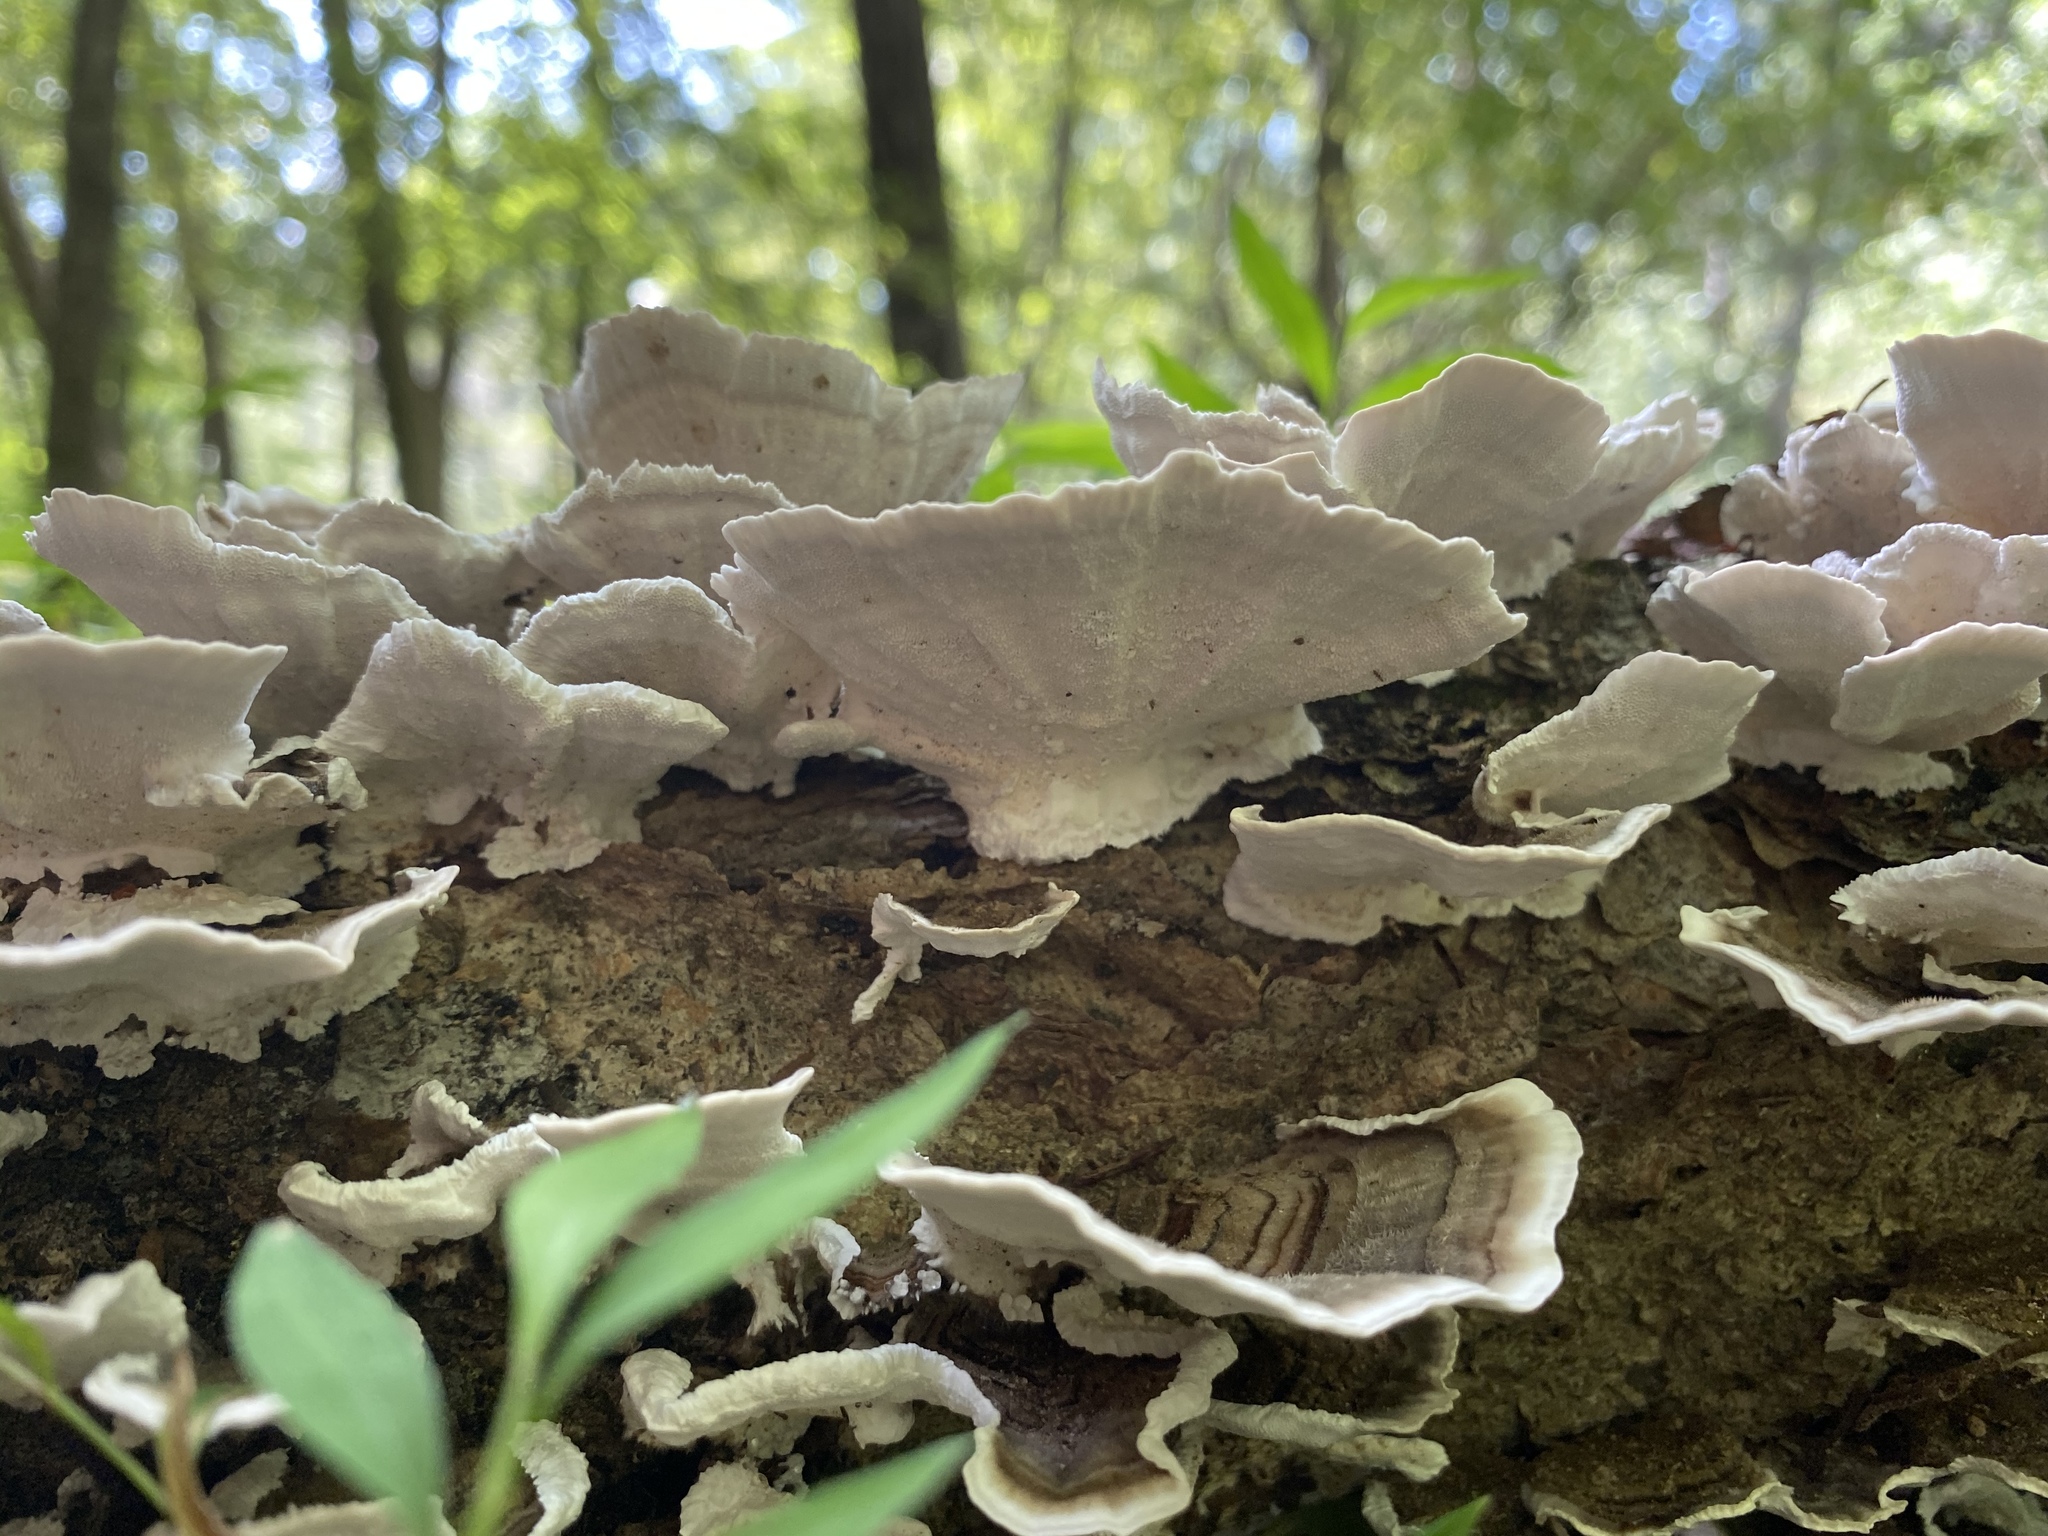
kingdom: Fungi
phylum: Basidiomycota
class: Agaricomycetes
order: Polyporales
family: Polyporaceae
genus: Trametes
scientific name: Trametes versicolor
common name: Turkeytail
